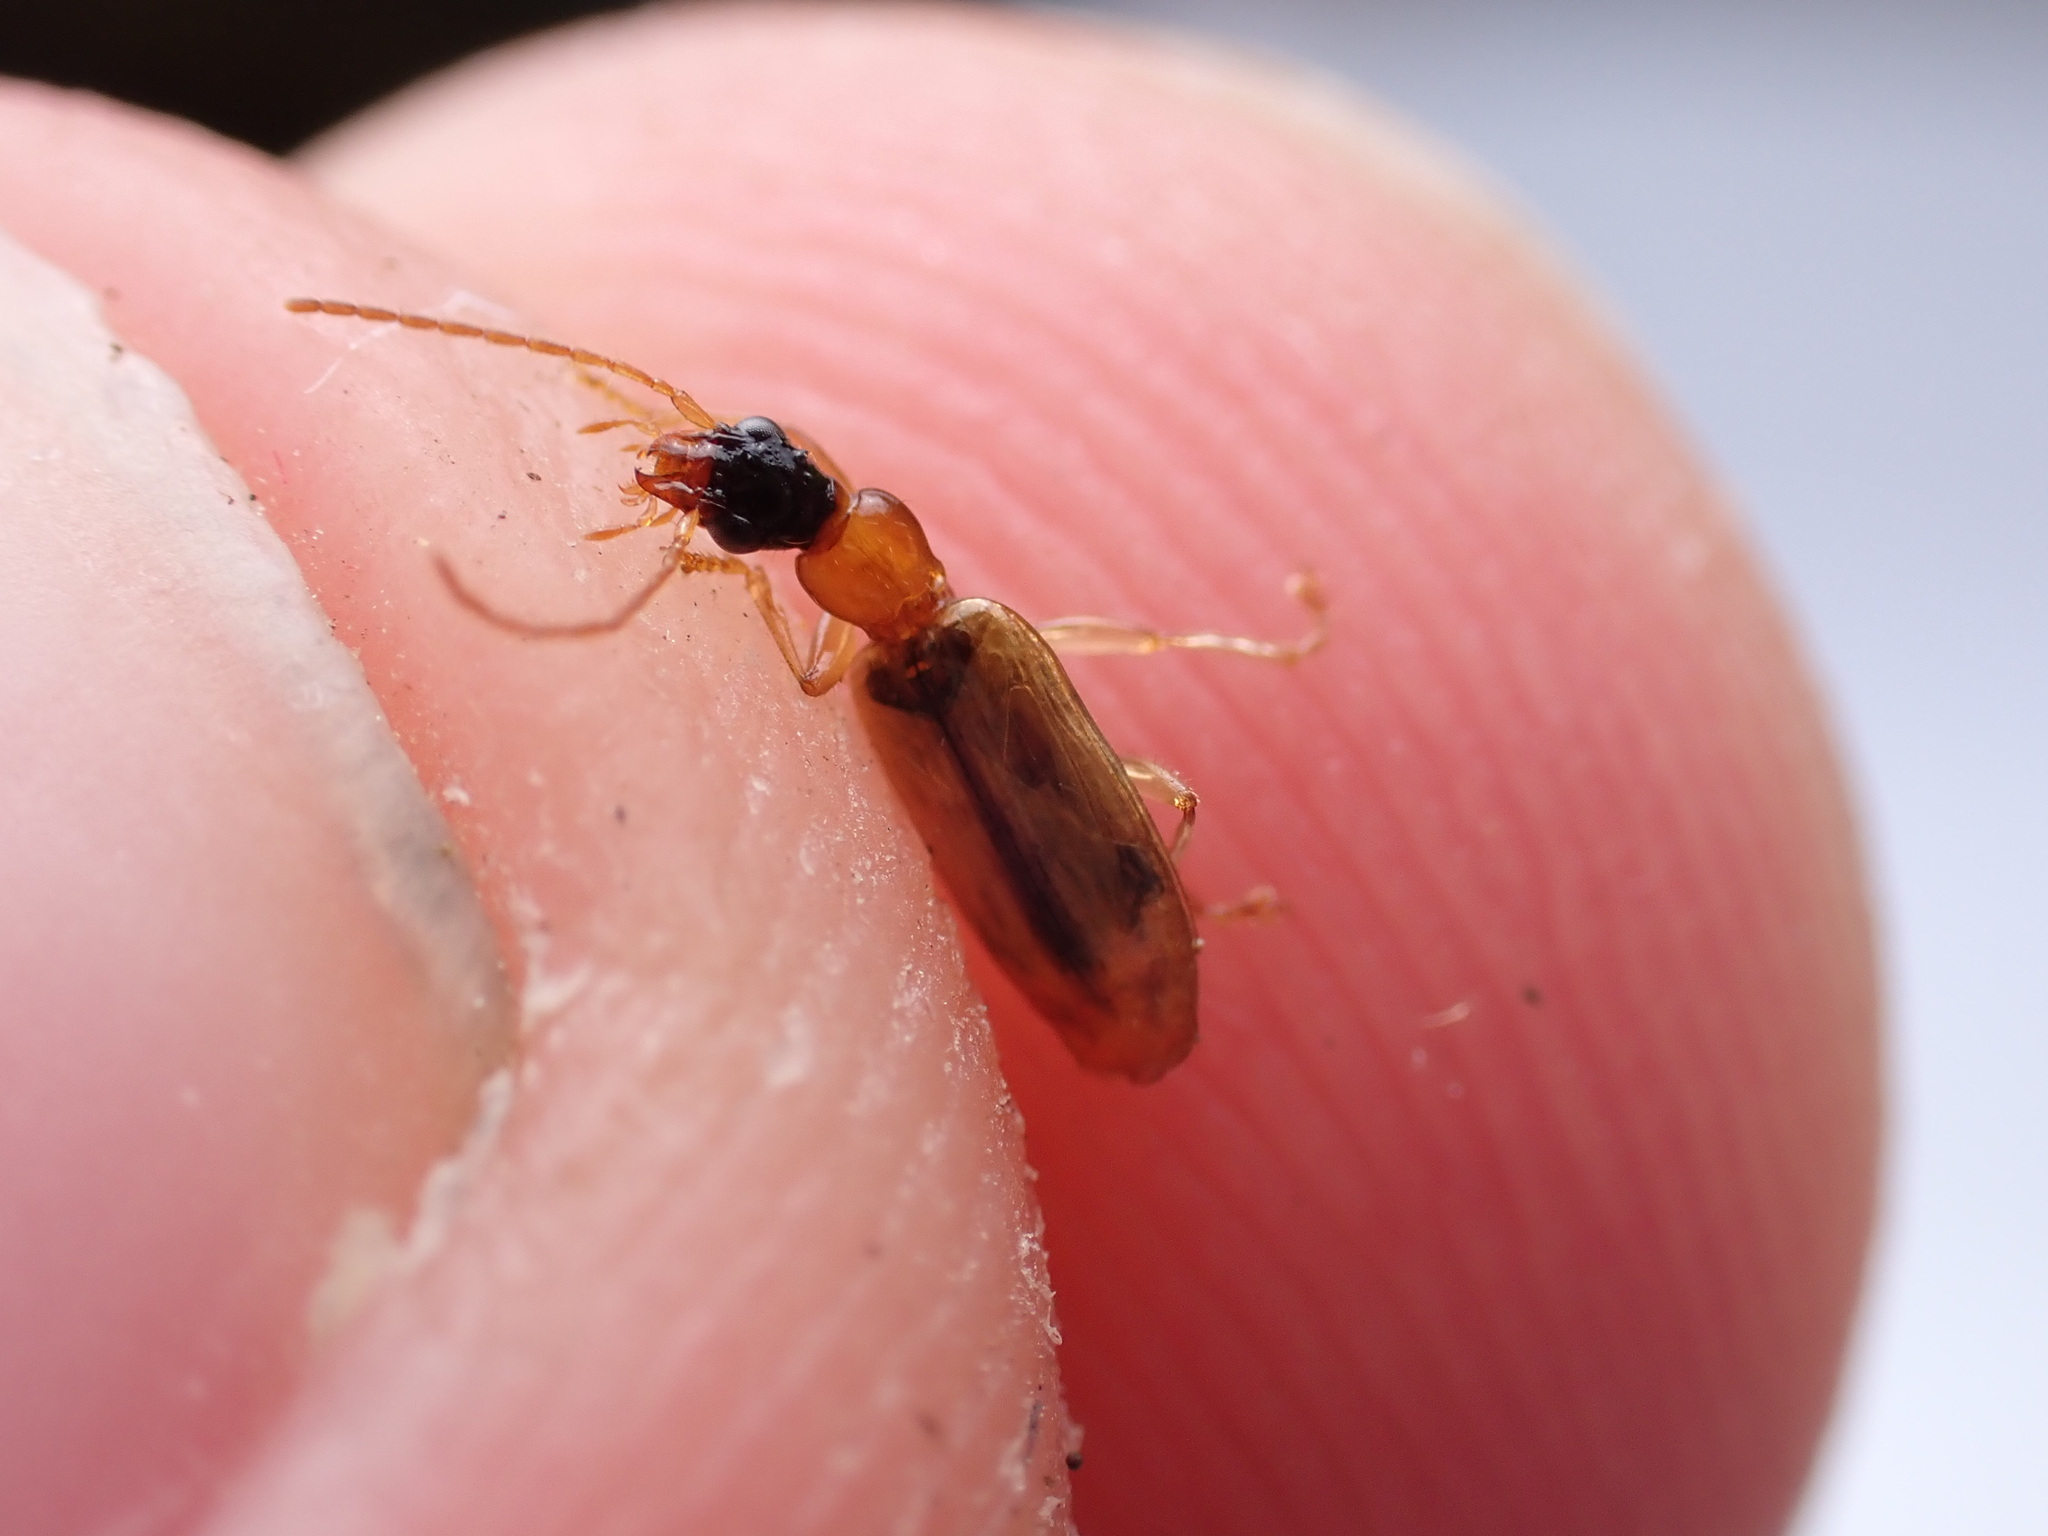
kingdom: Animalia
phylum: Arthropoda
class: Insecta
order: Coleoptera
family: Carabidae
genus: Demetrias
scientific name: Demetrias atricapillus
